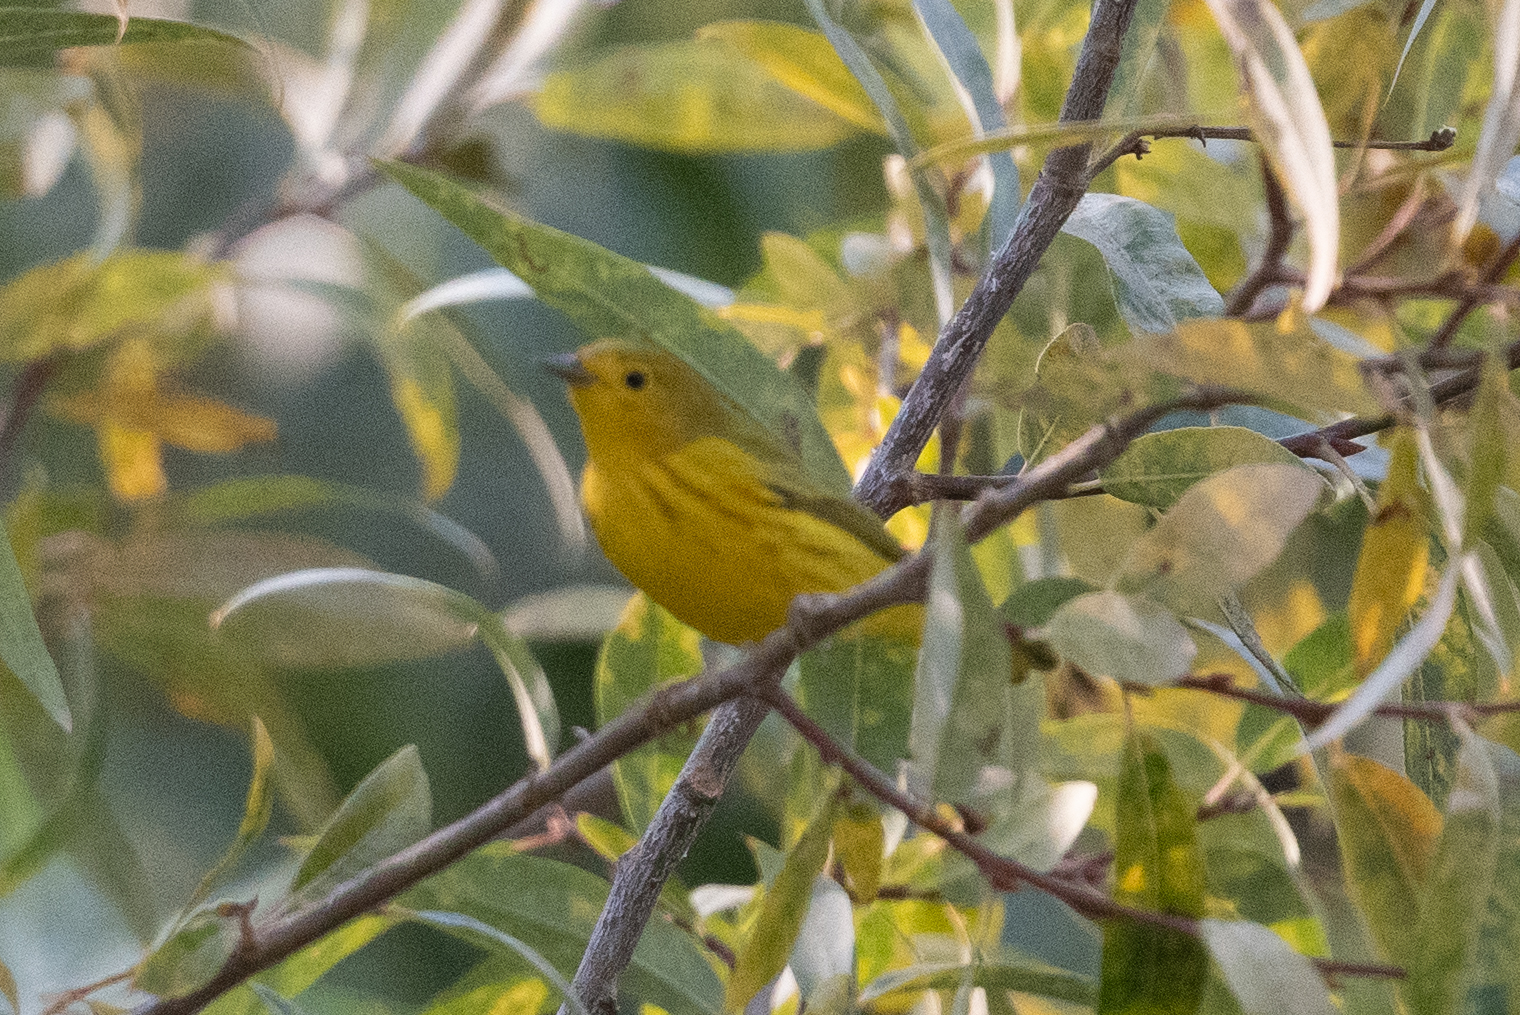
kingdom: Animalia
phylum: Chordata
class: Aves
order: Passeriformes
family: Parulidae
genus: Setophaga
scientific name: Setophaga petechia
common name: Yellow warbler
